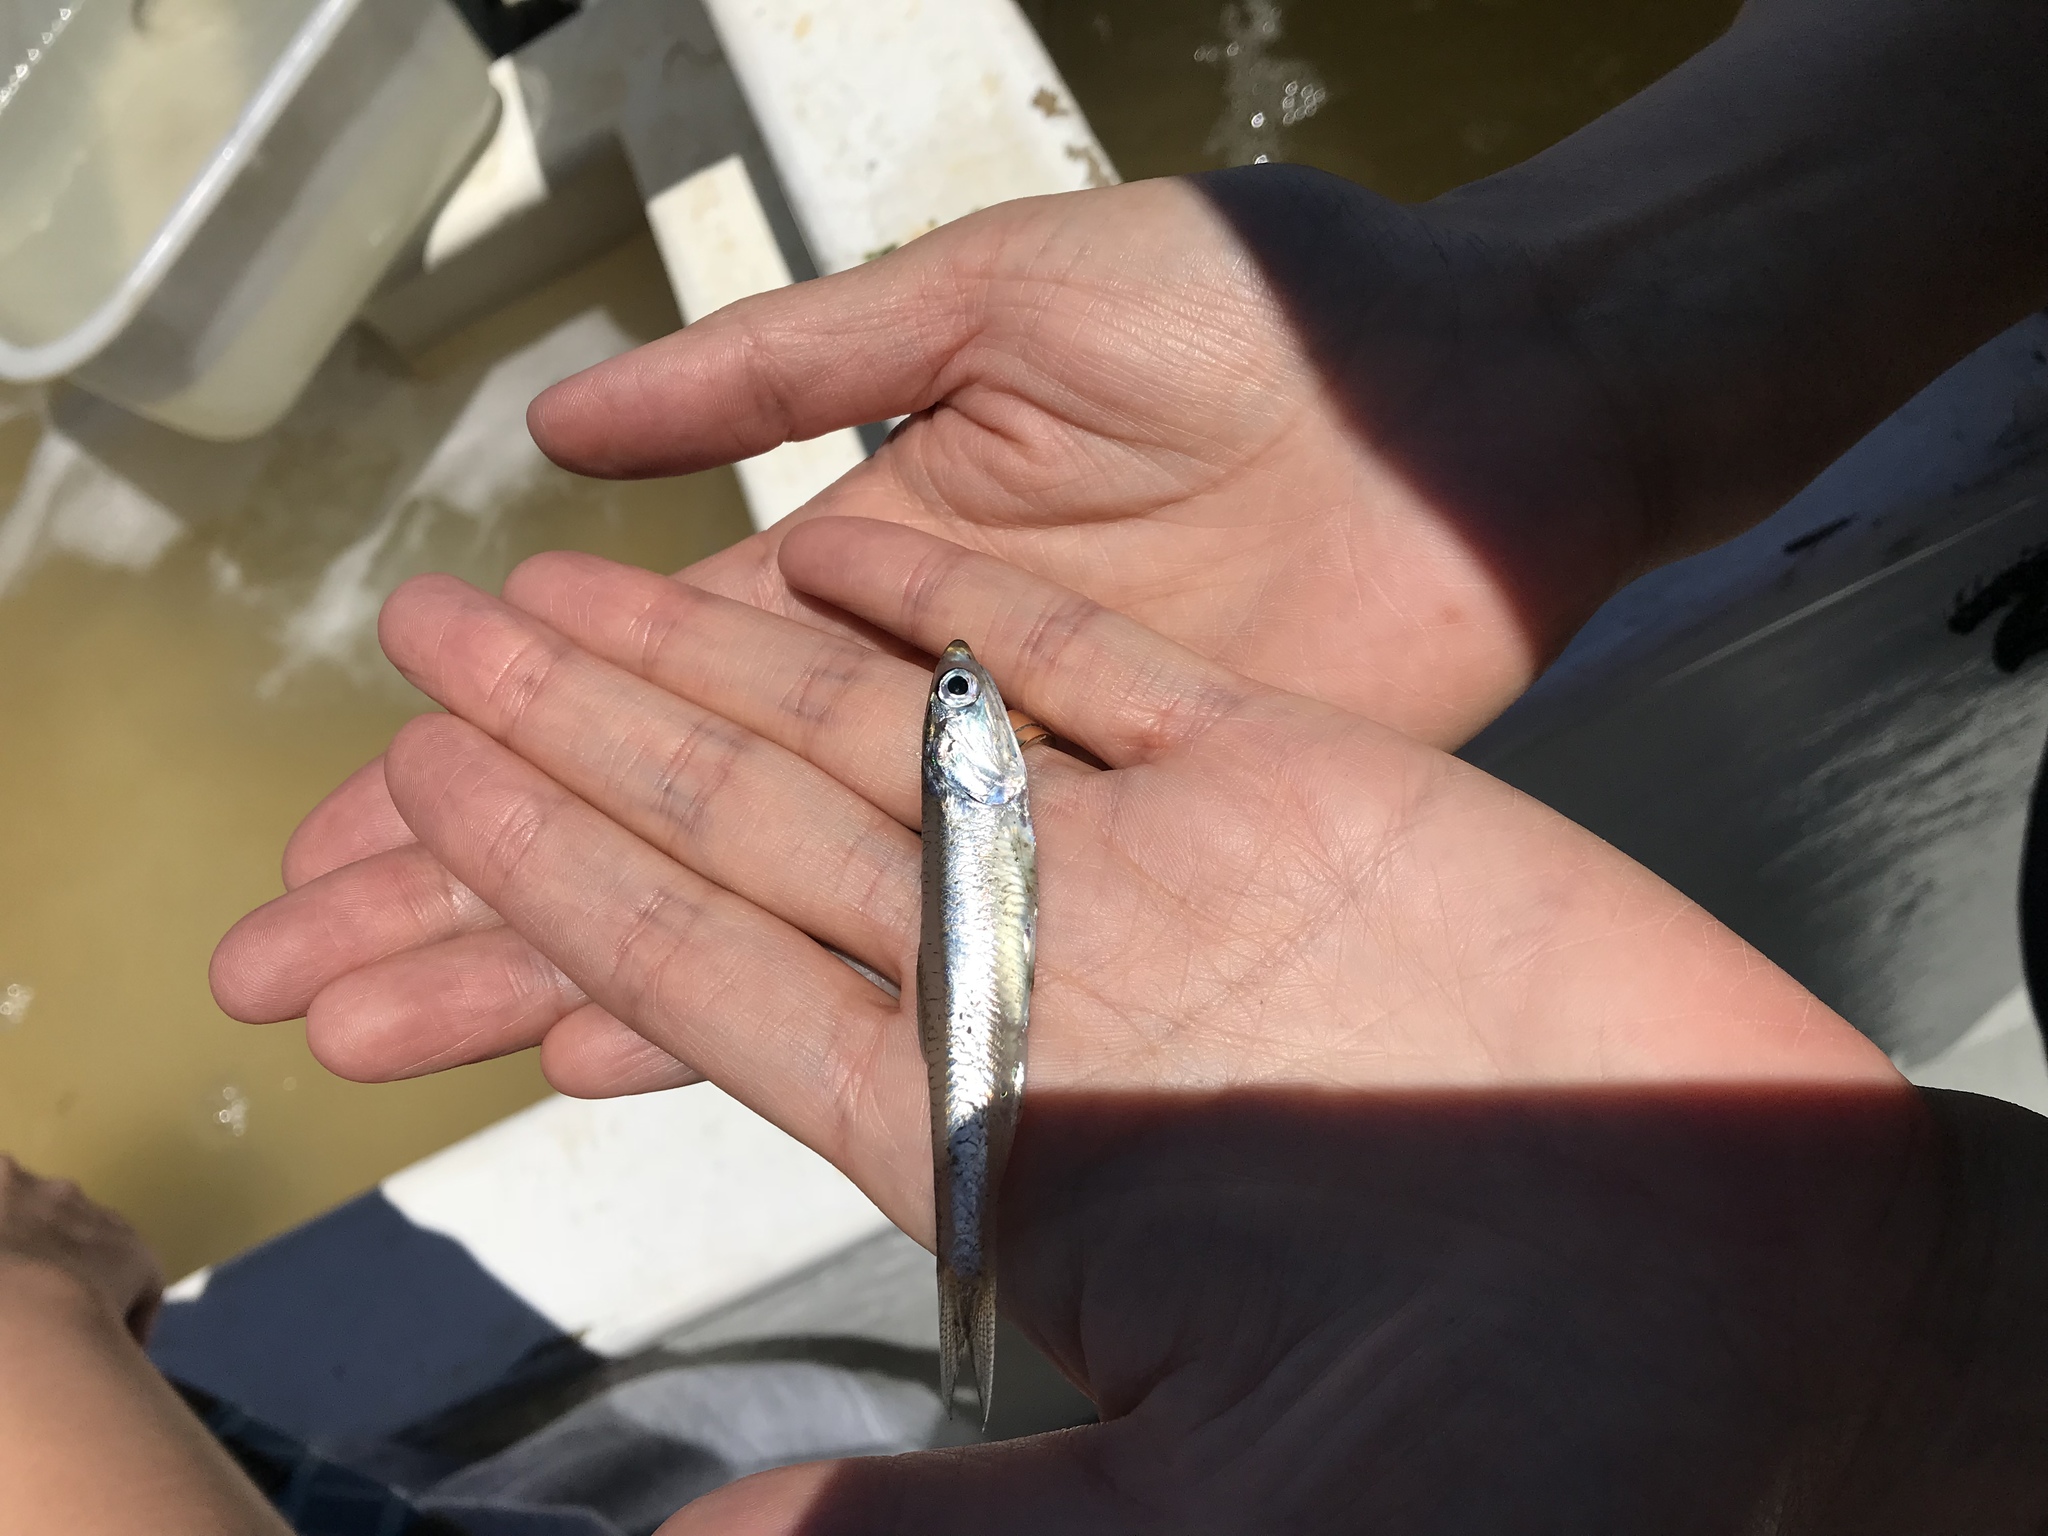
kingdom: Animalia
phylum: Chordata
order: Clupeiformes
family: Engraulidae
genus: Engraulis
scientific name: Engraulis mordax
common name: Northern anchovy
